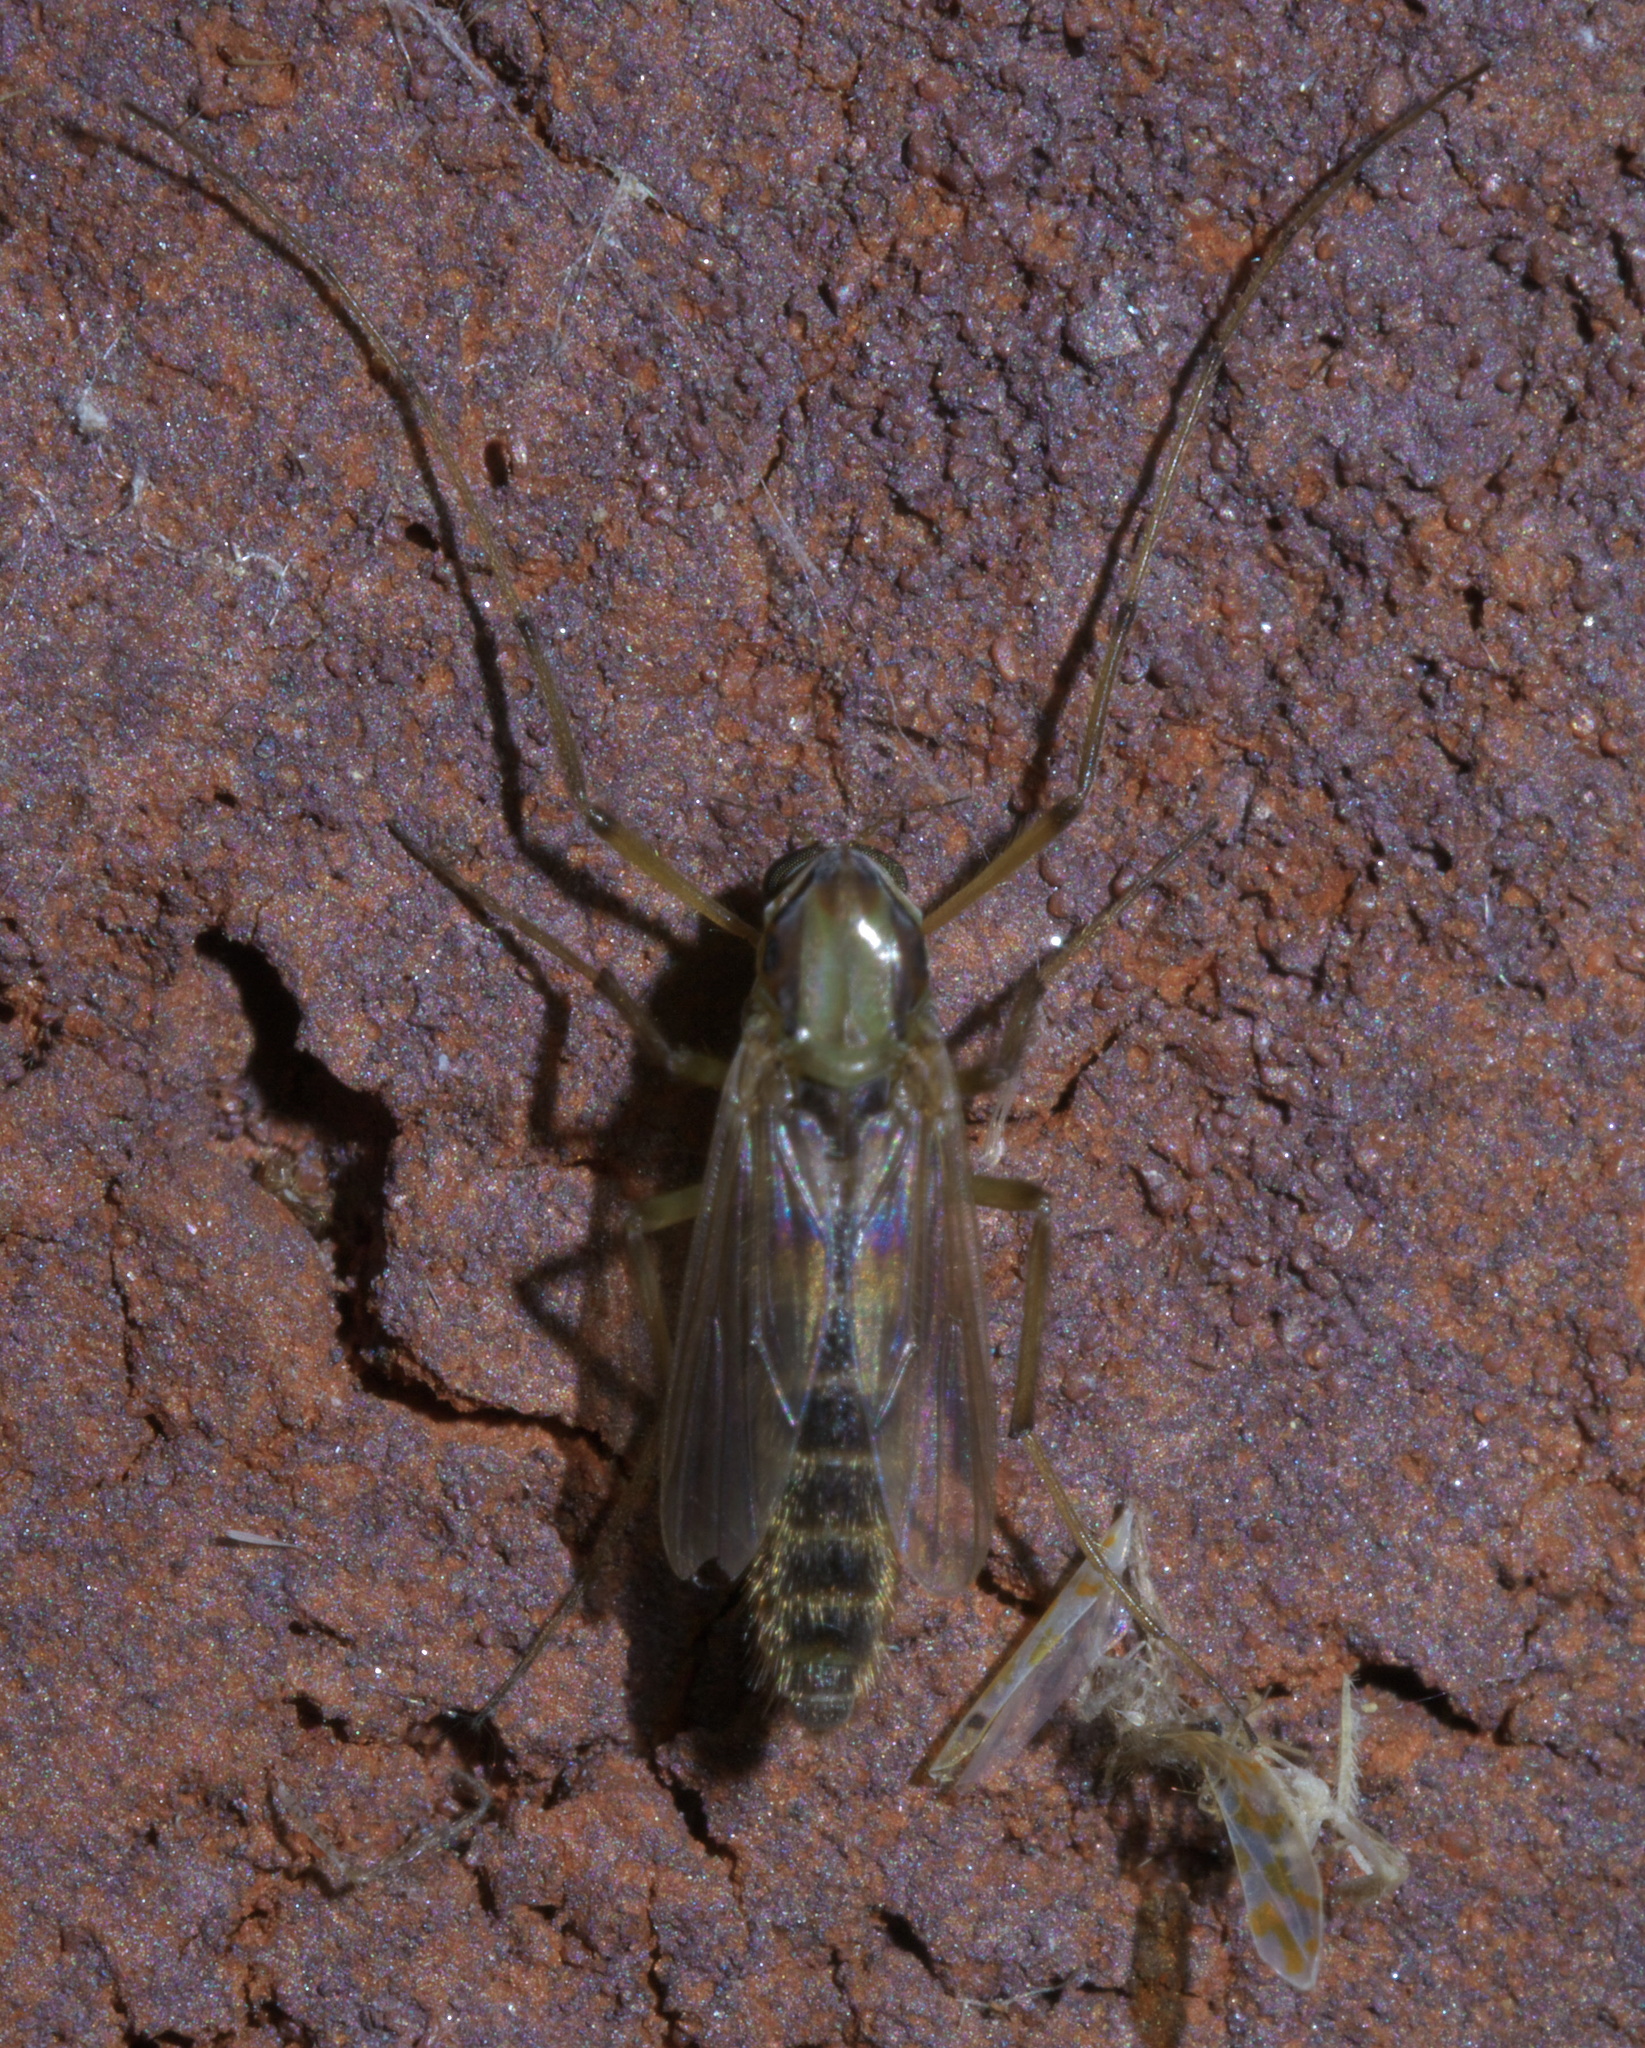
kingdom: Animalia
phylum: Arthropoda
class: Insecta
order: Diptera
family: Chironomidae
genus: Goeldichironomus
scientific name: Goeldichironomus carus
